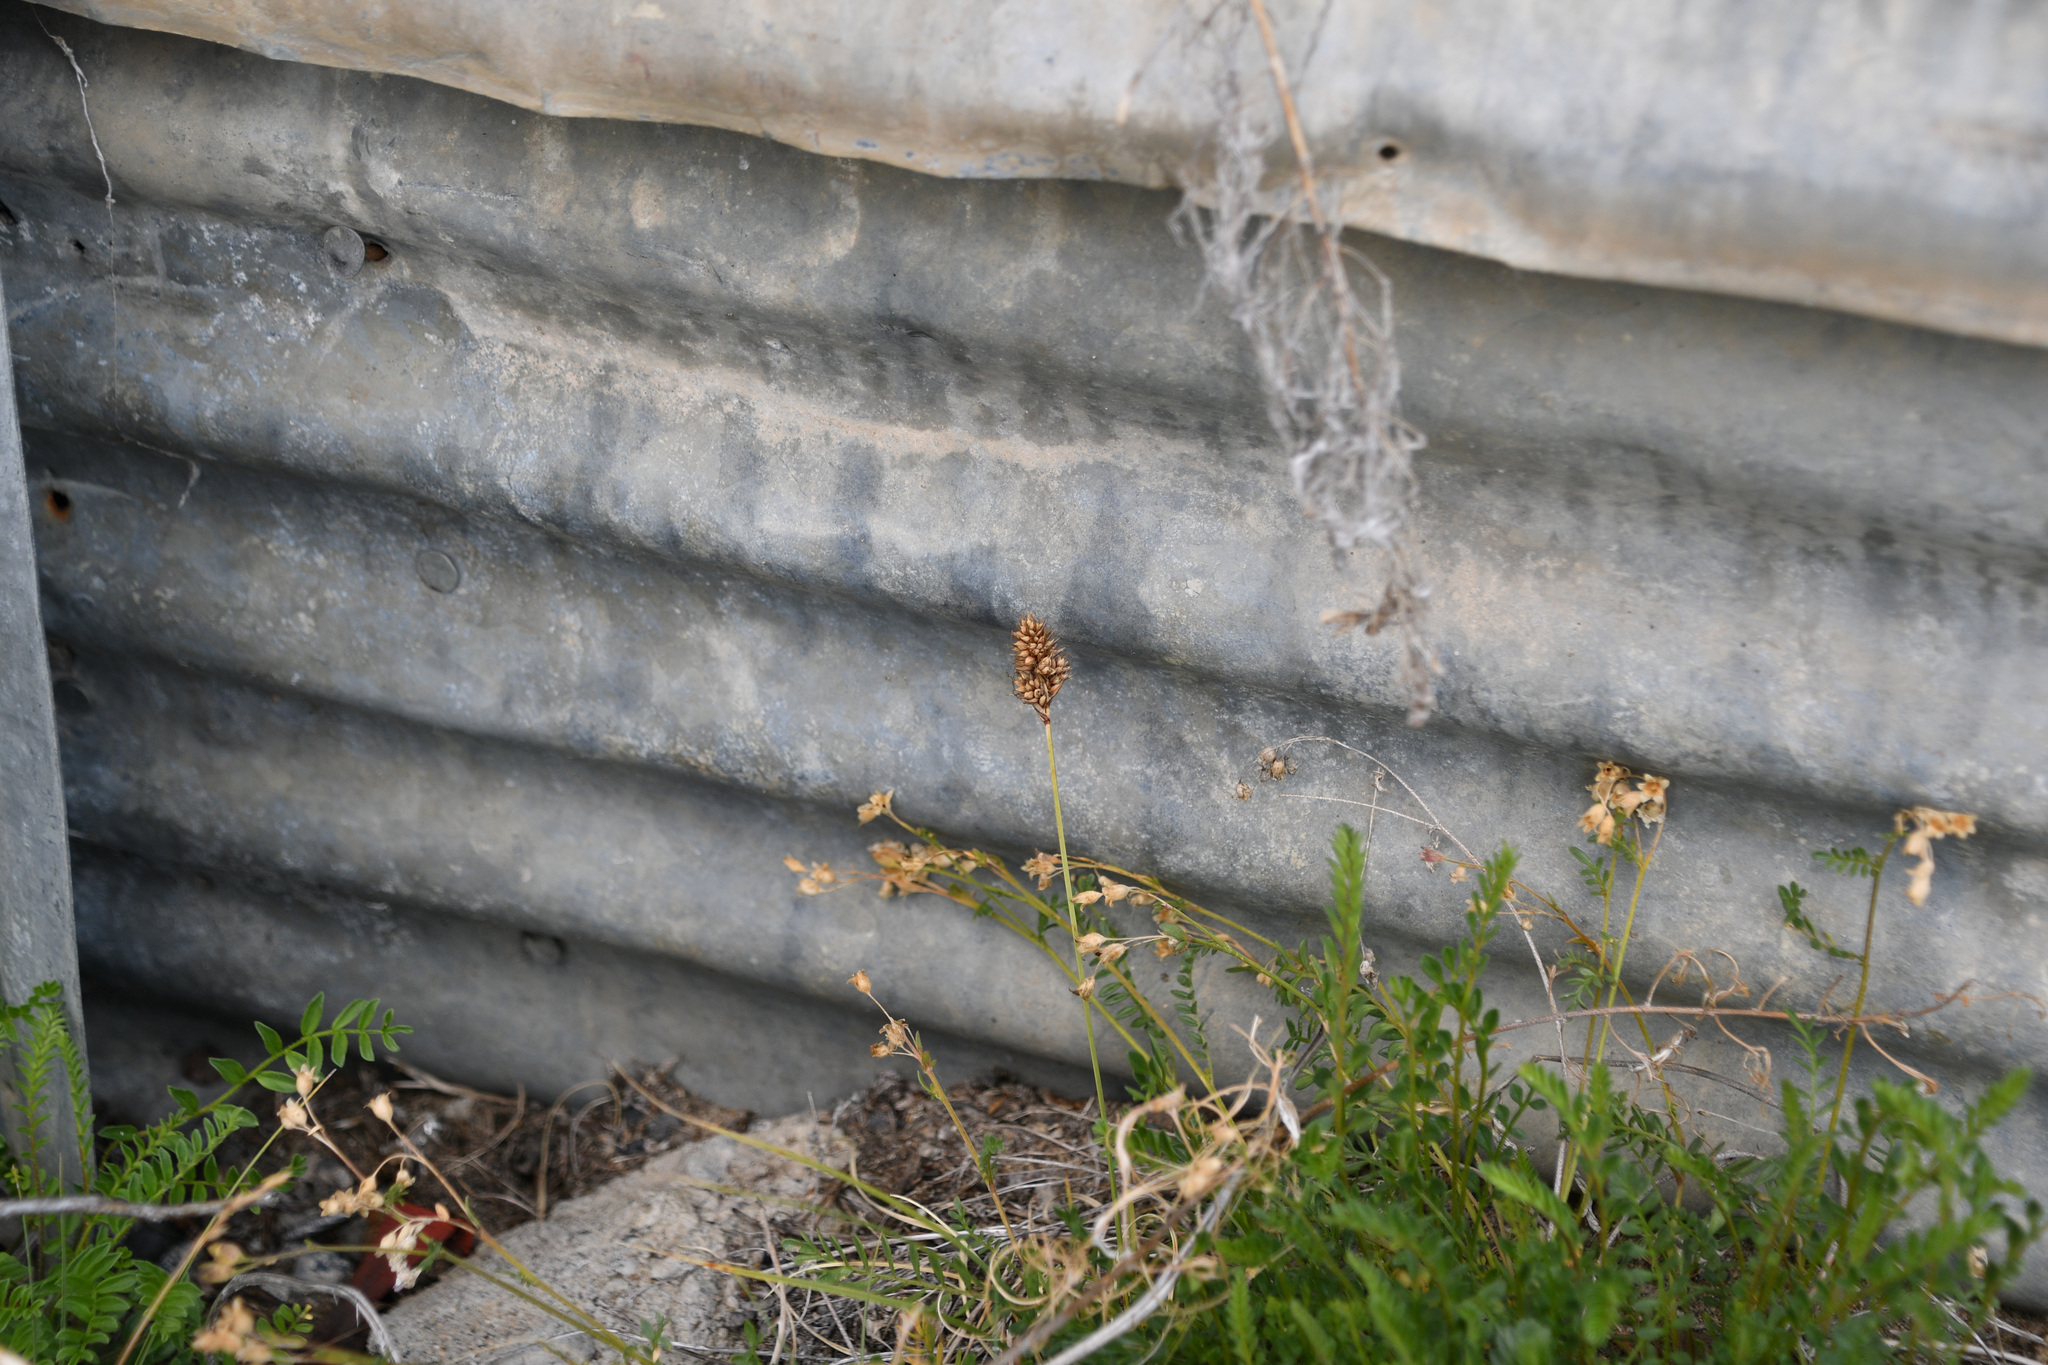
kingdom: Plantae
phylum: Tracheophyta
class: Liliopsida
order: Poales
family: Cyperaceae
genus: Carex
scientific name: Carex sabulosa
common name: Baikal sedge
